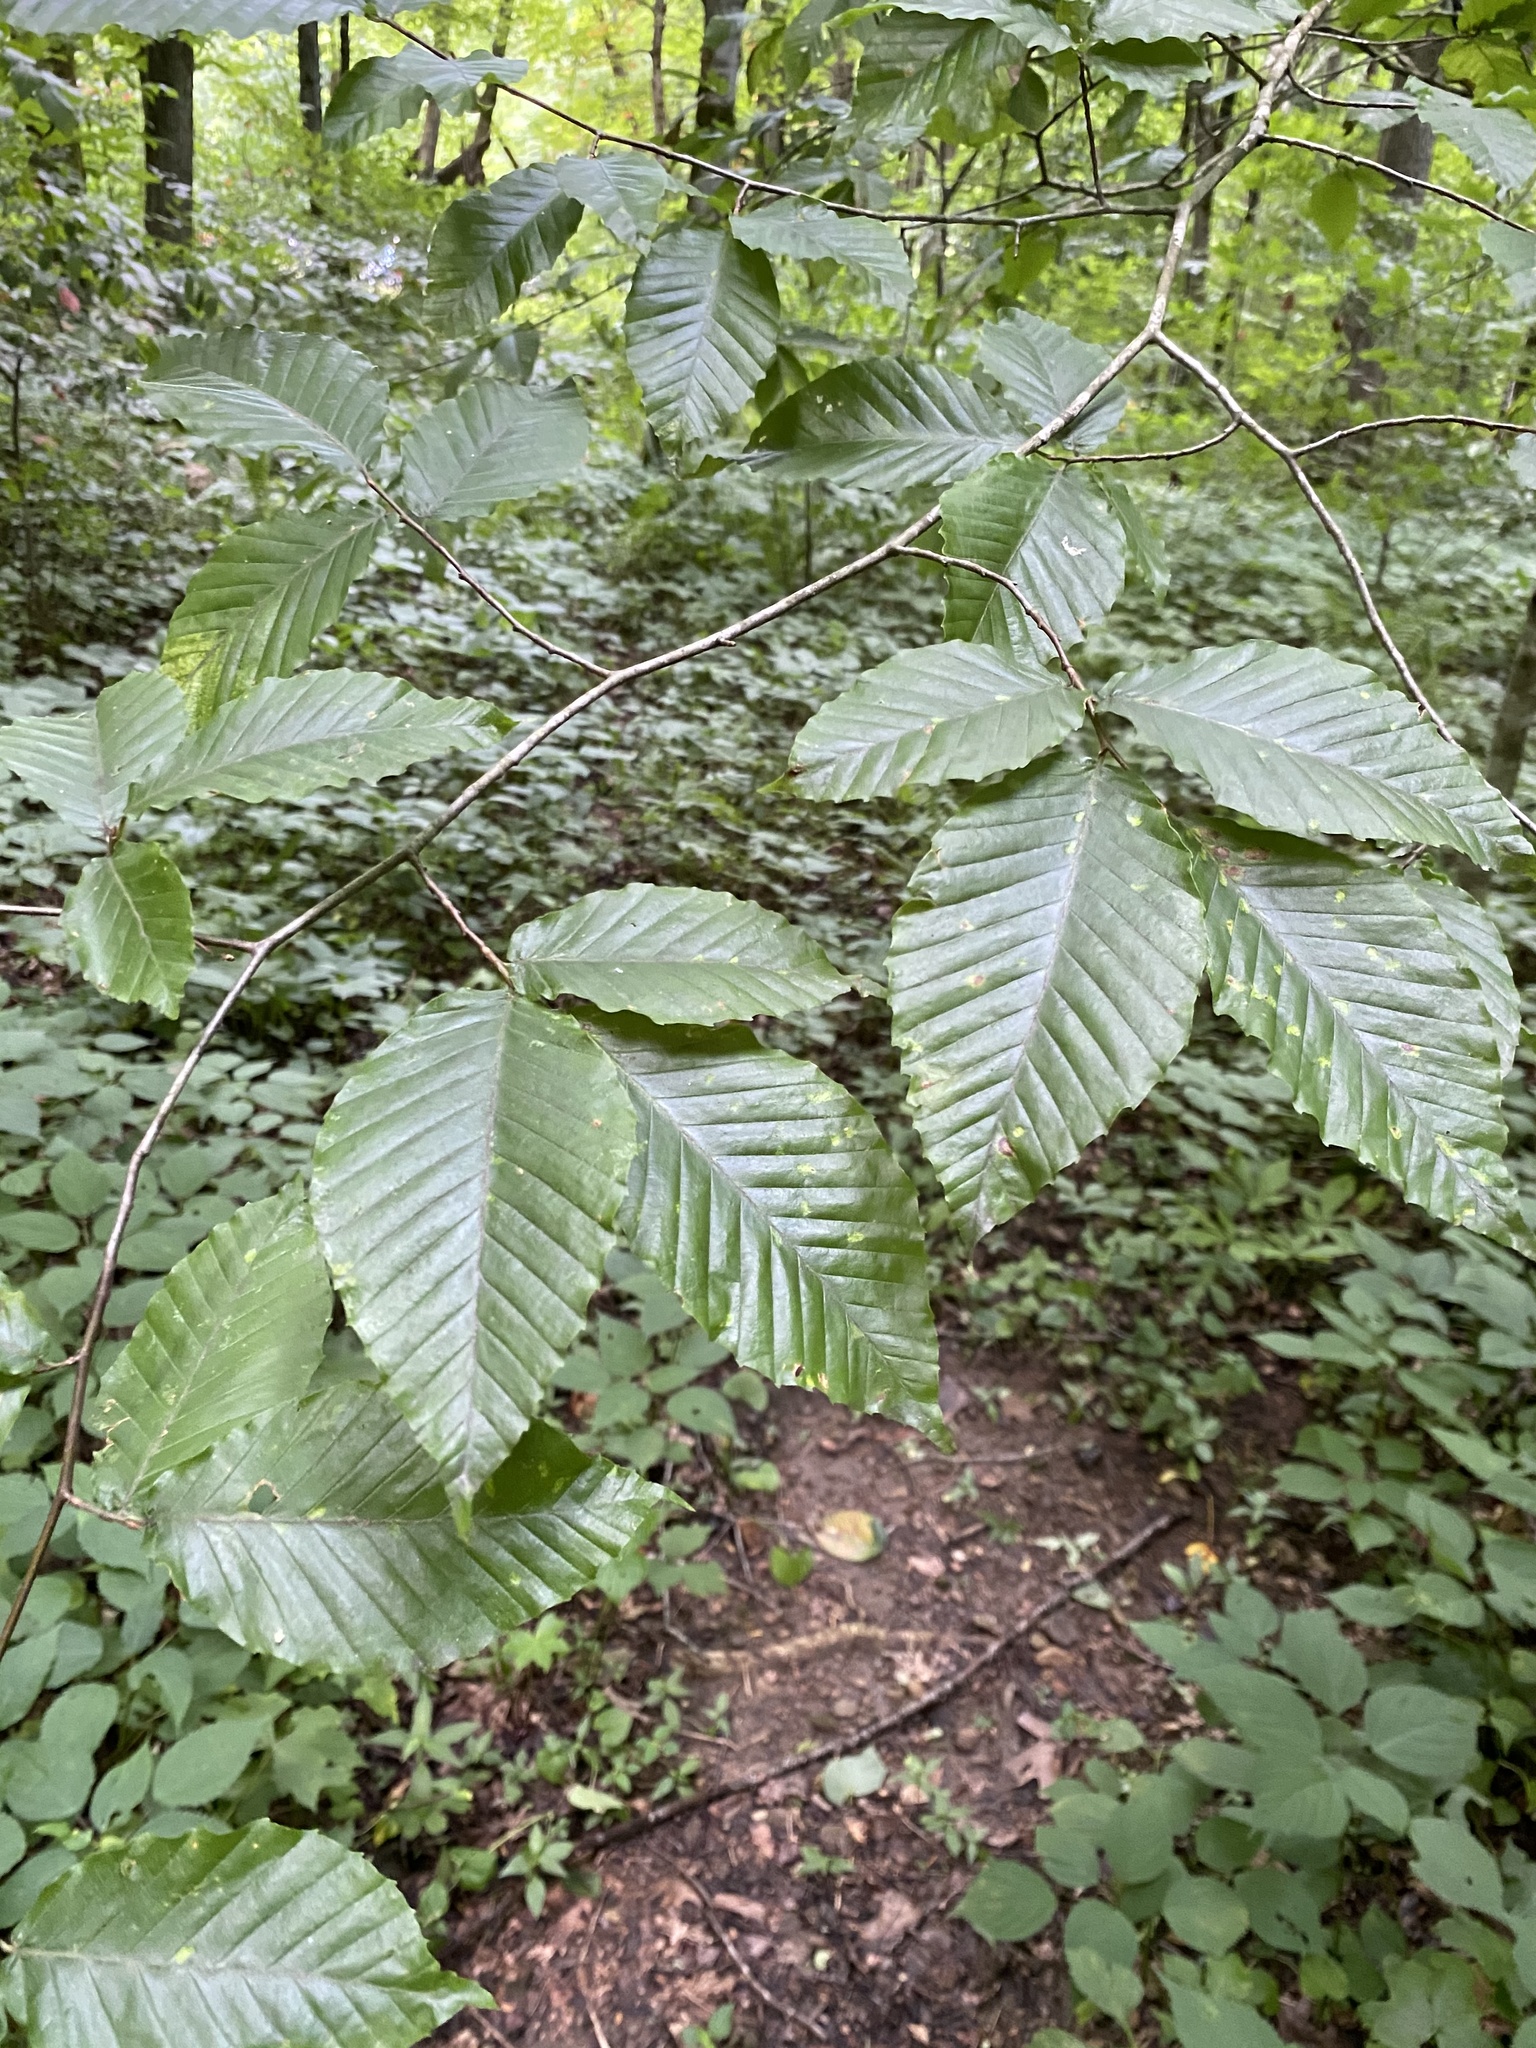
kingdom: Plantae
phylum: Tracheophyta
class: Magnoliopsida
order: Fagales
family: Fagaceae
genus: Fagus
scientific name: Fagus grandifolia
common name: American beech
